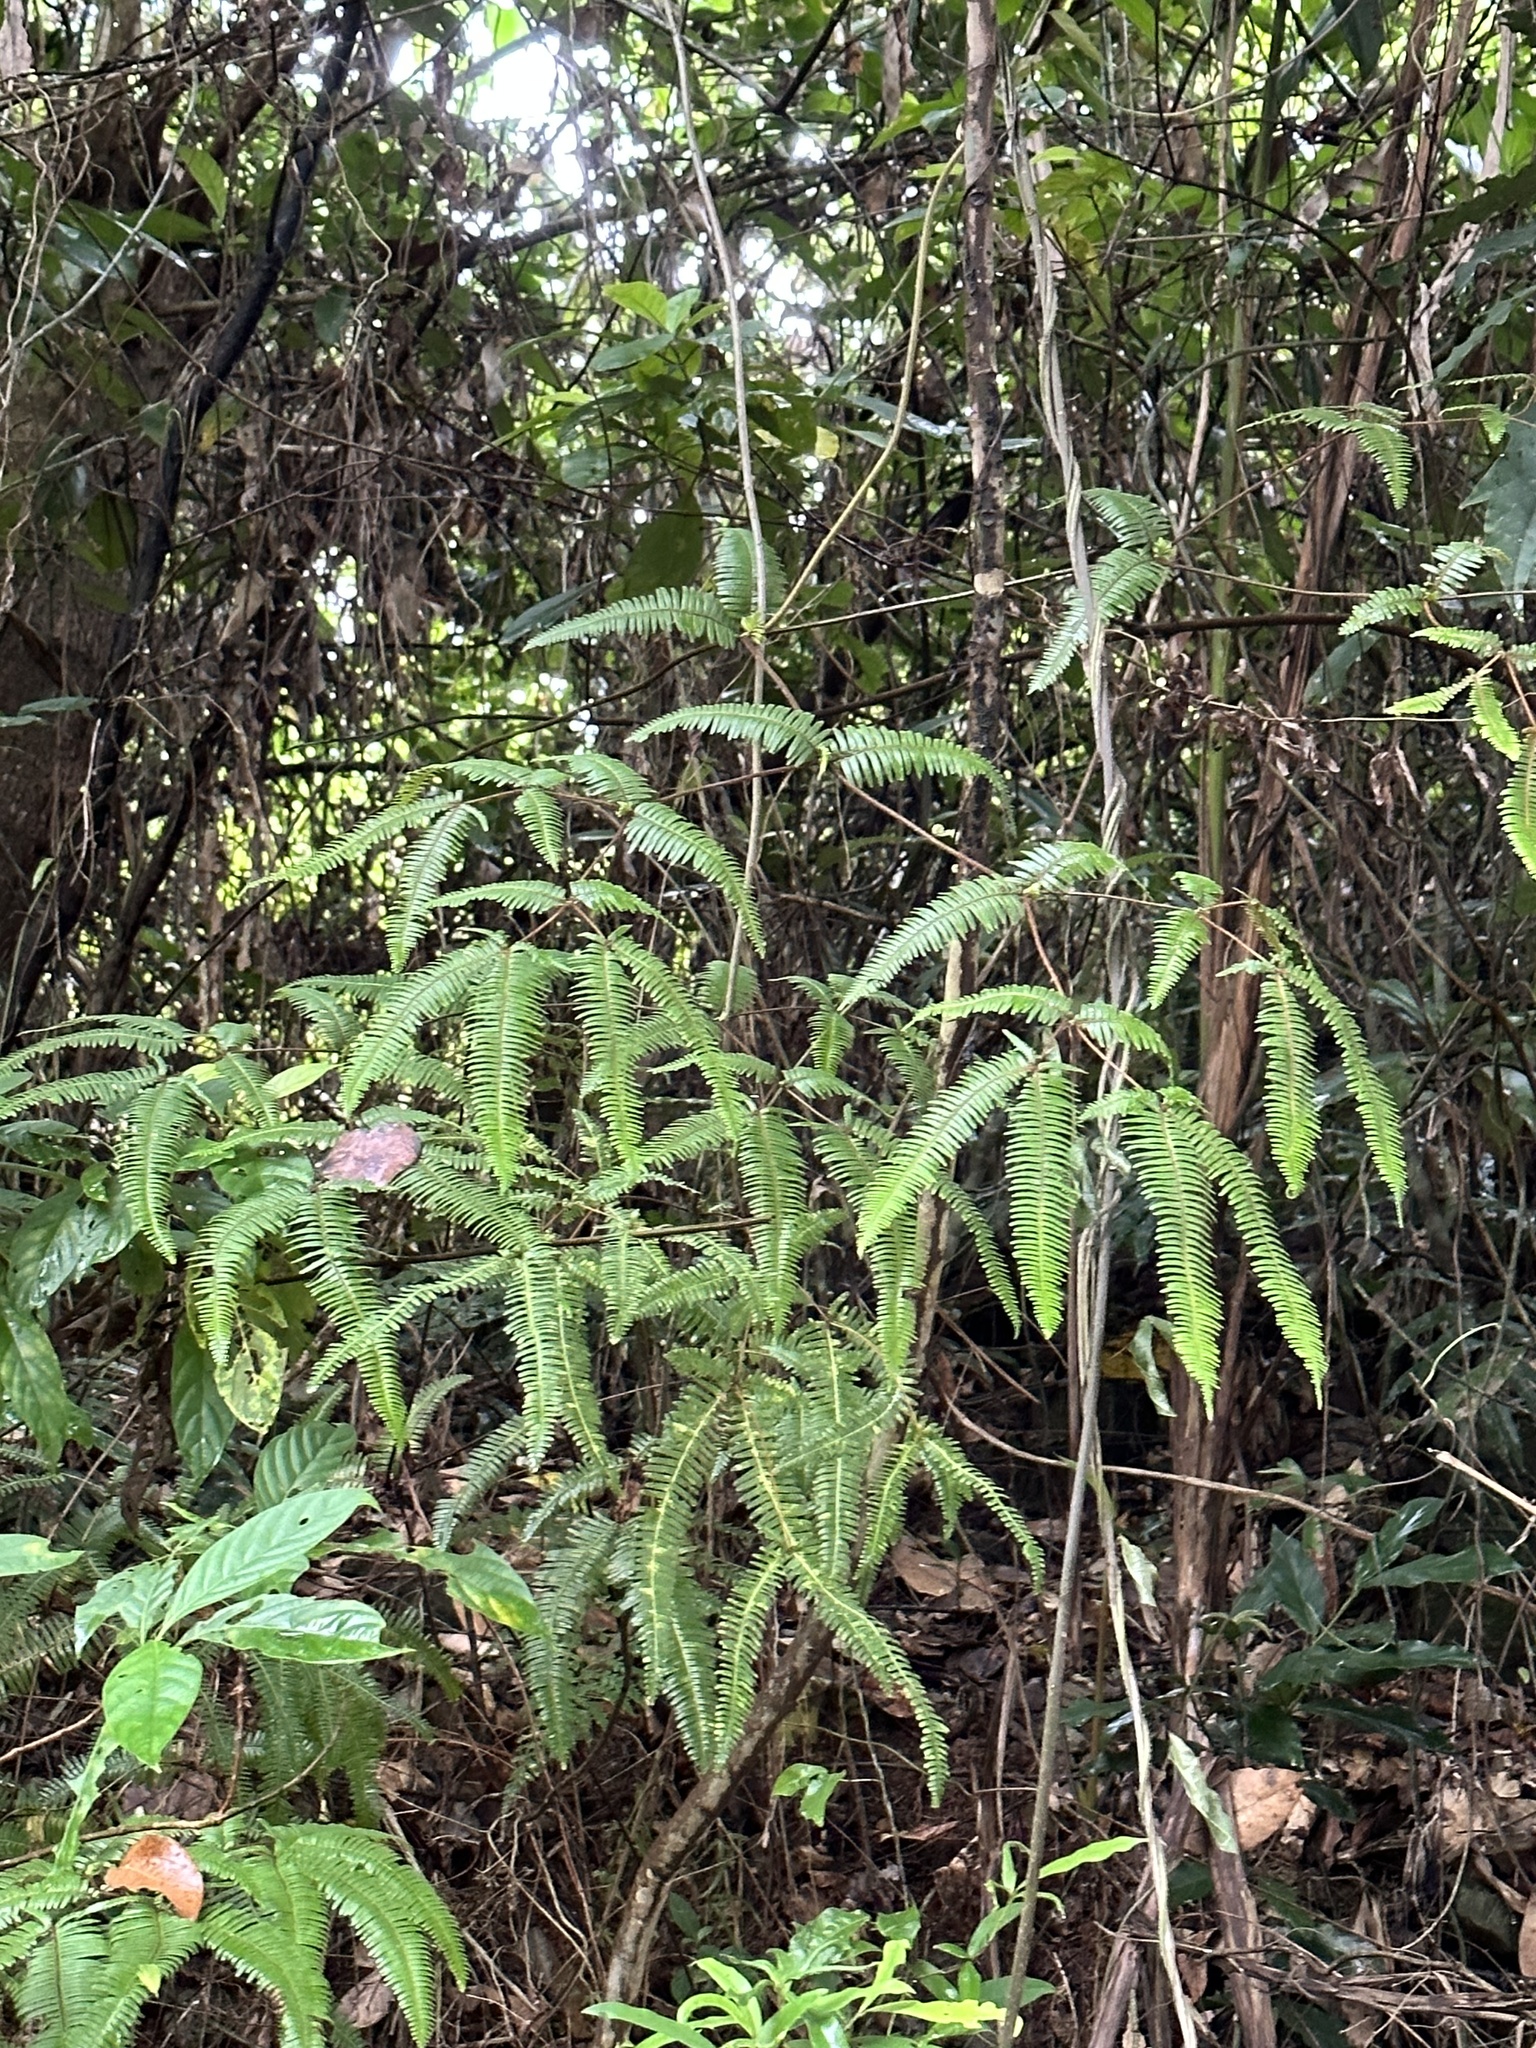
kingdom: Plantae
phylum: Tracheophyta
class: Polypodiopsida
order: Gleicheniales
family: Gleicheniaceae
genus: Dicranopteris
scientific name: Dicranopteris linearis
